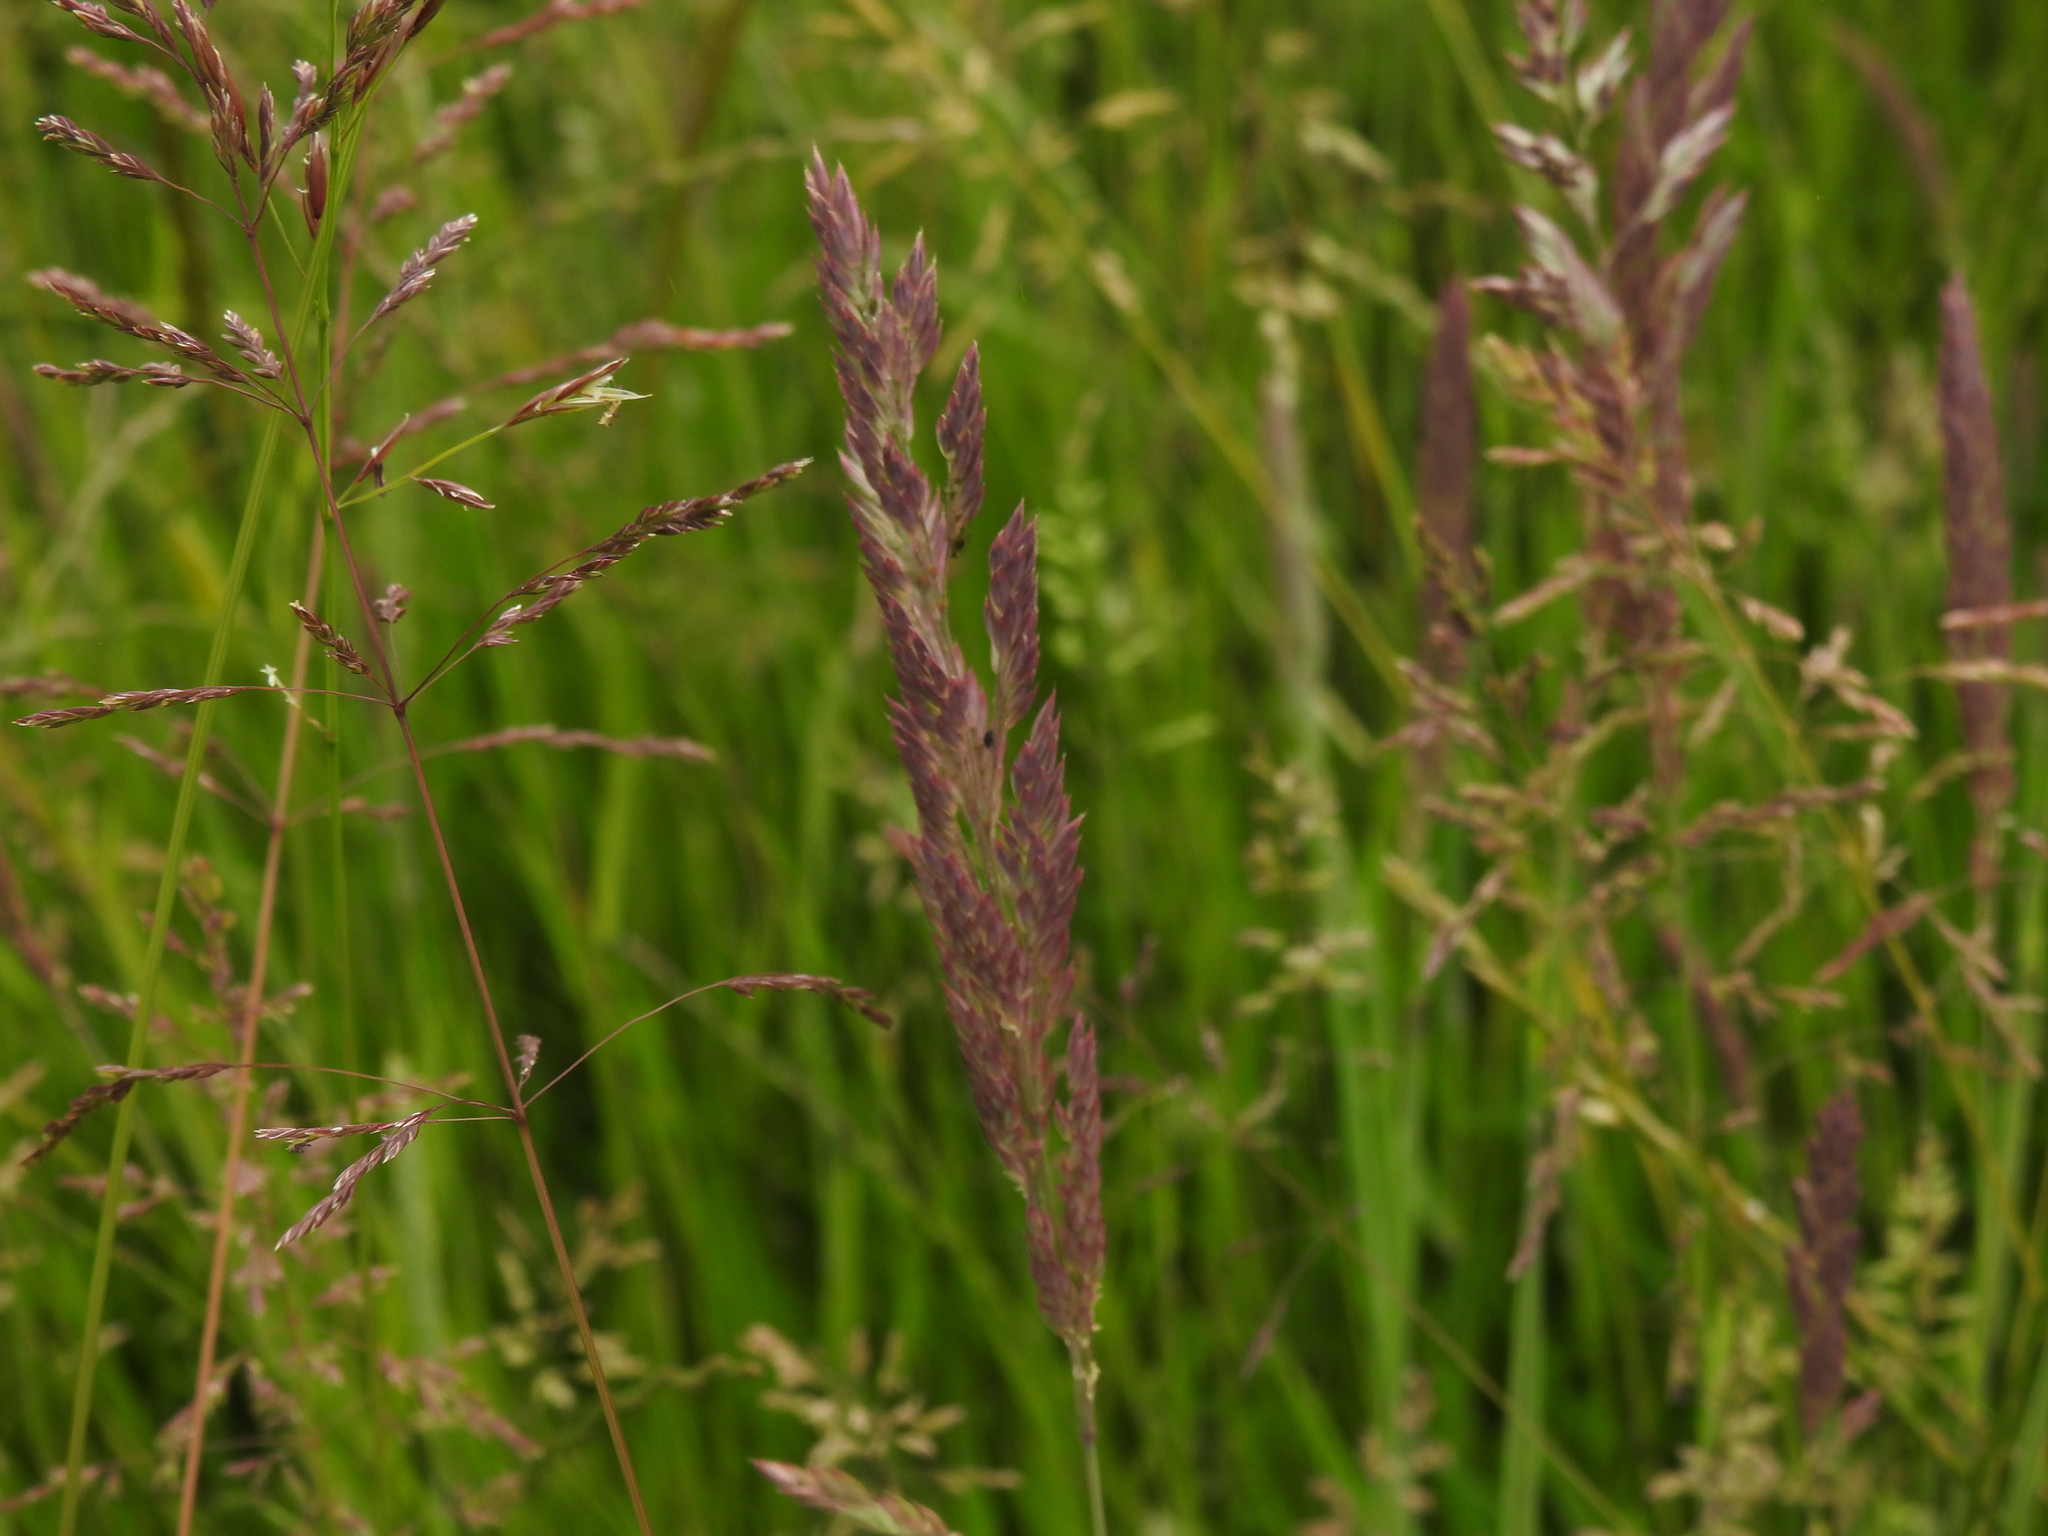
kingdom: Plantae
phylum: Tracheophyta
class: Liliopsida
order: Poales
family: Poaceae
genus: Holcus
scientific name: Holcus lanatus
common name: Yorkshire-fog
